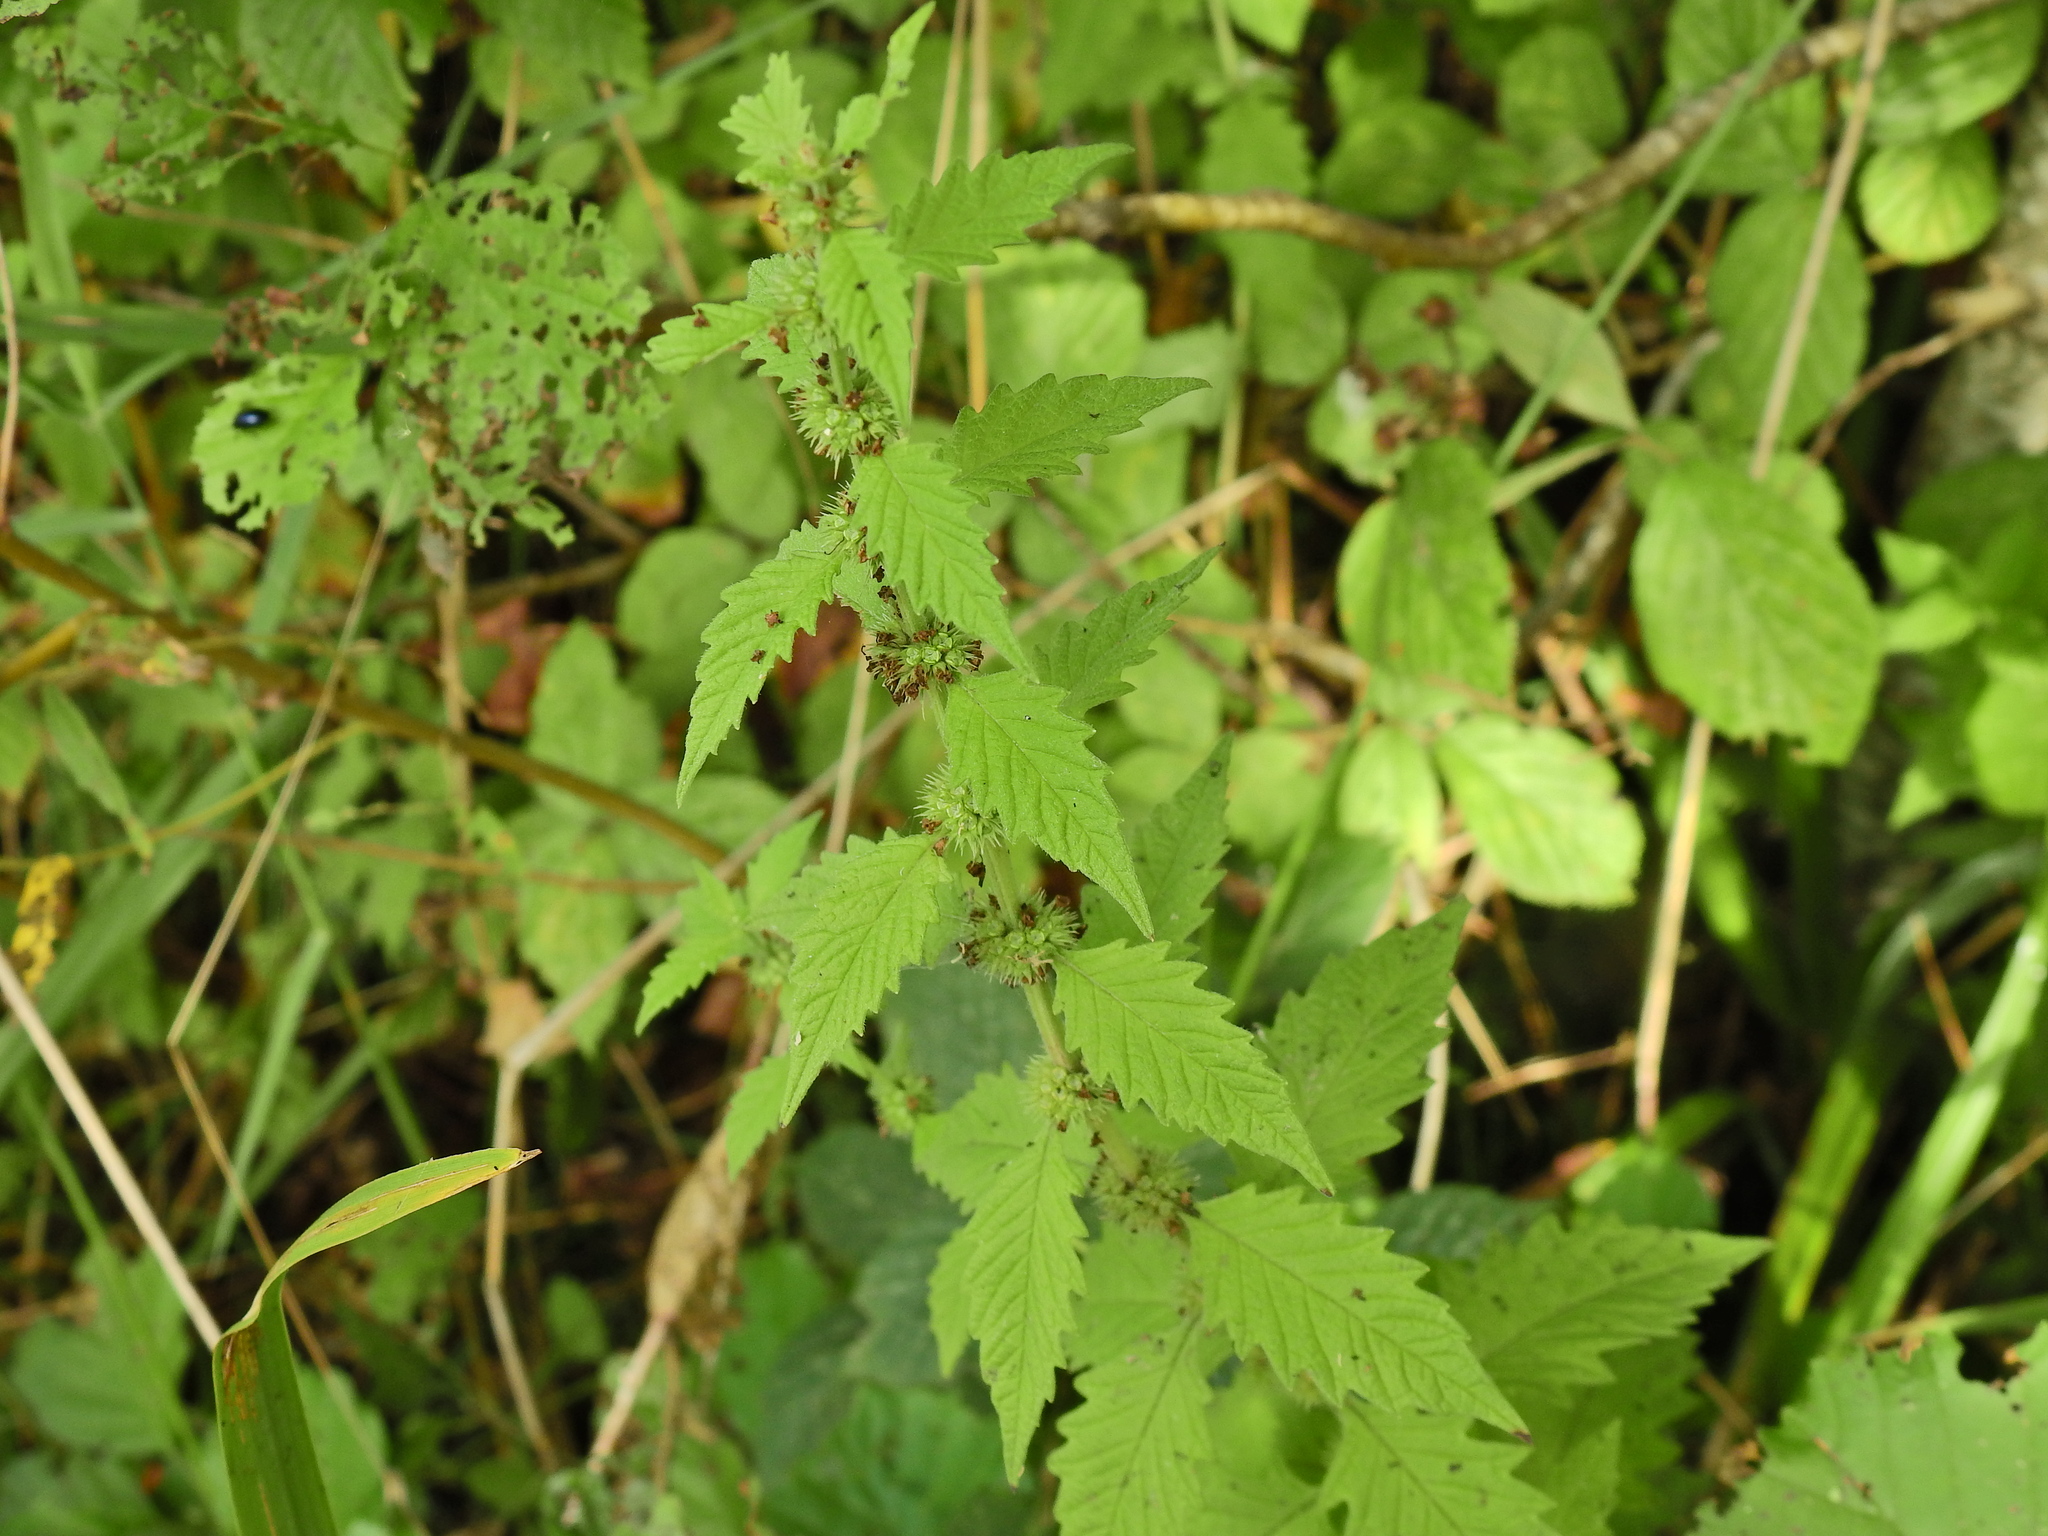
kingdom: Plantae
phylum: Tracheophyta
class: Magnoliopsida
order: Lamiales
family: Lamiaceae
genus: Lycopus
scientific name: Lycopus europaeus
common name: European bugleweed
